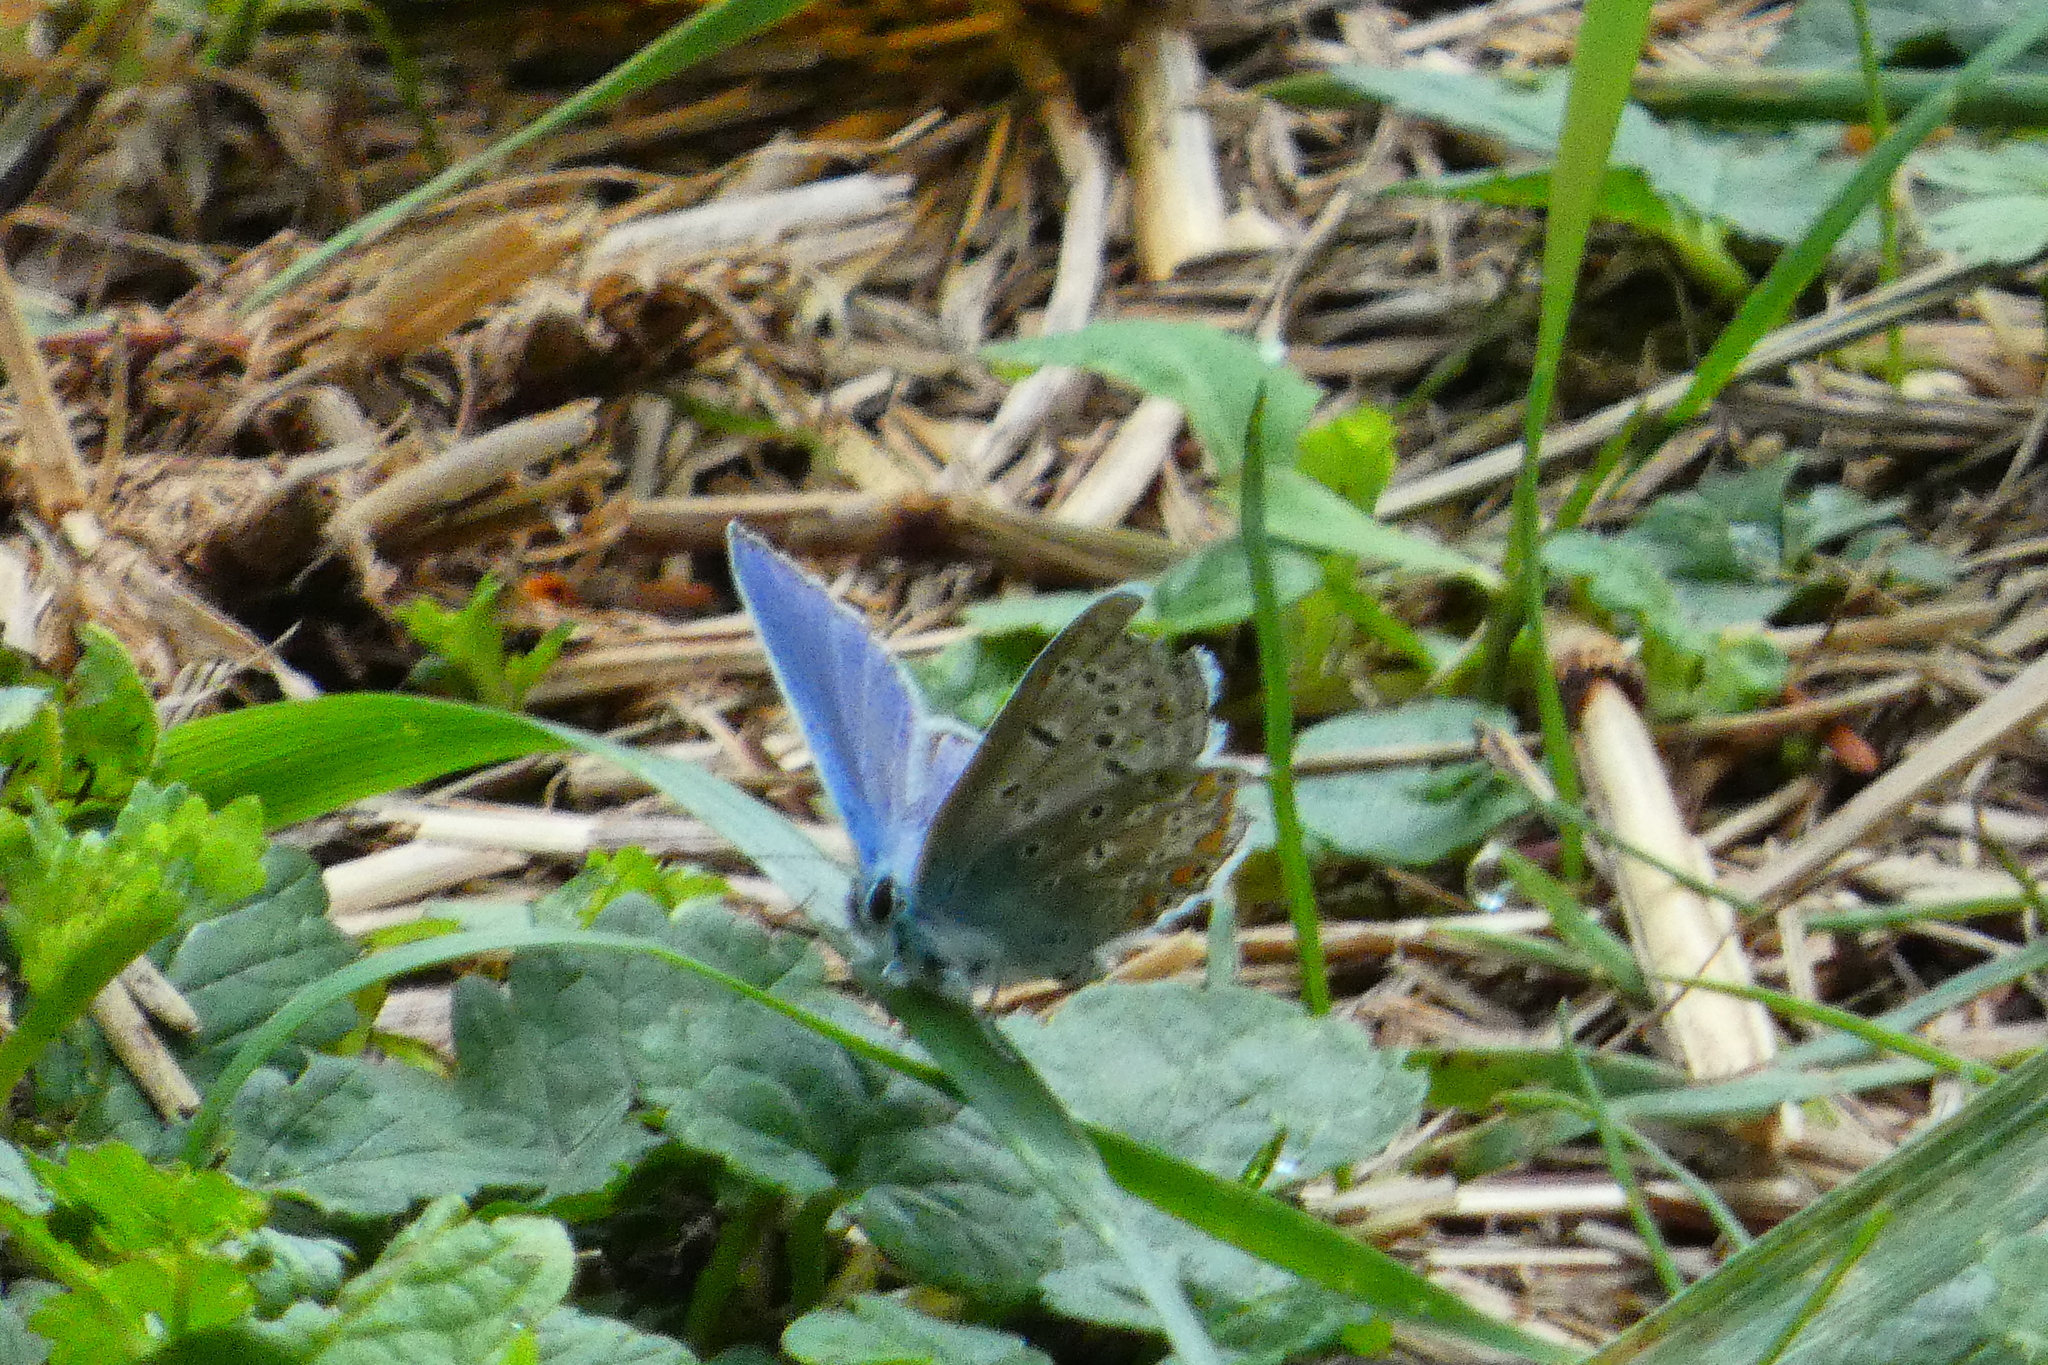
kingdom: Animalia
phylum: Arthropoda
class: Insecta
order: Lepidoptera
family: Lycaenidae
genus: Polyommatus
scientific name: Polyommatus icarus
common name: Common blue
